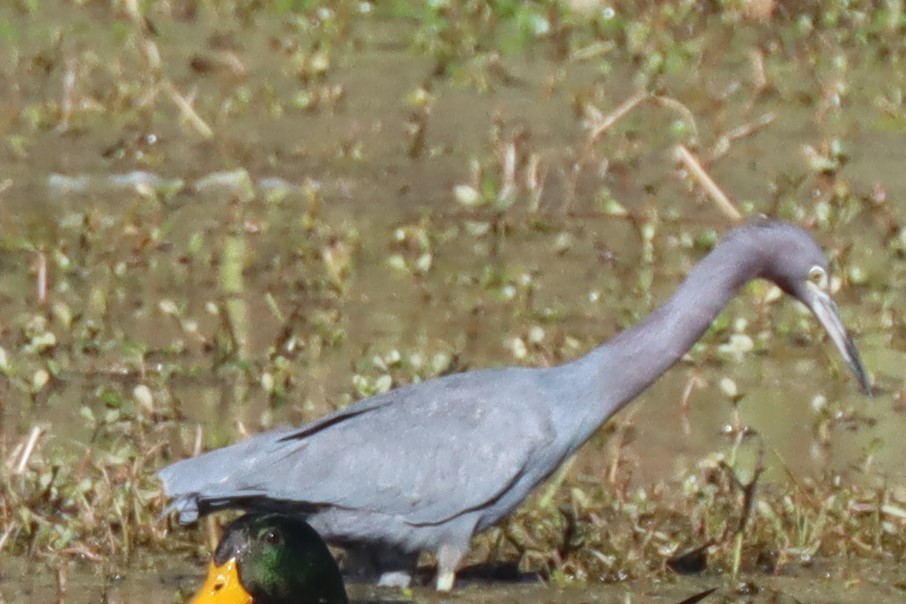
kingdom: Animalia
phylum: Chordata
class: Aves
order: Pelecaniformes
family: Ardeidae
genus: Egretta
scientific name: Egretta caerulea
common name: Little blue heron
